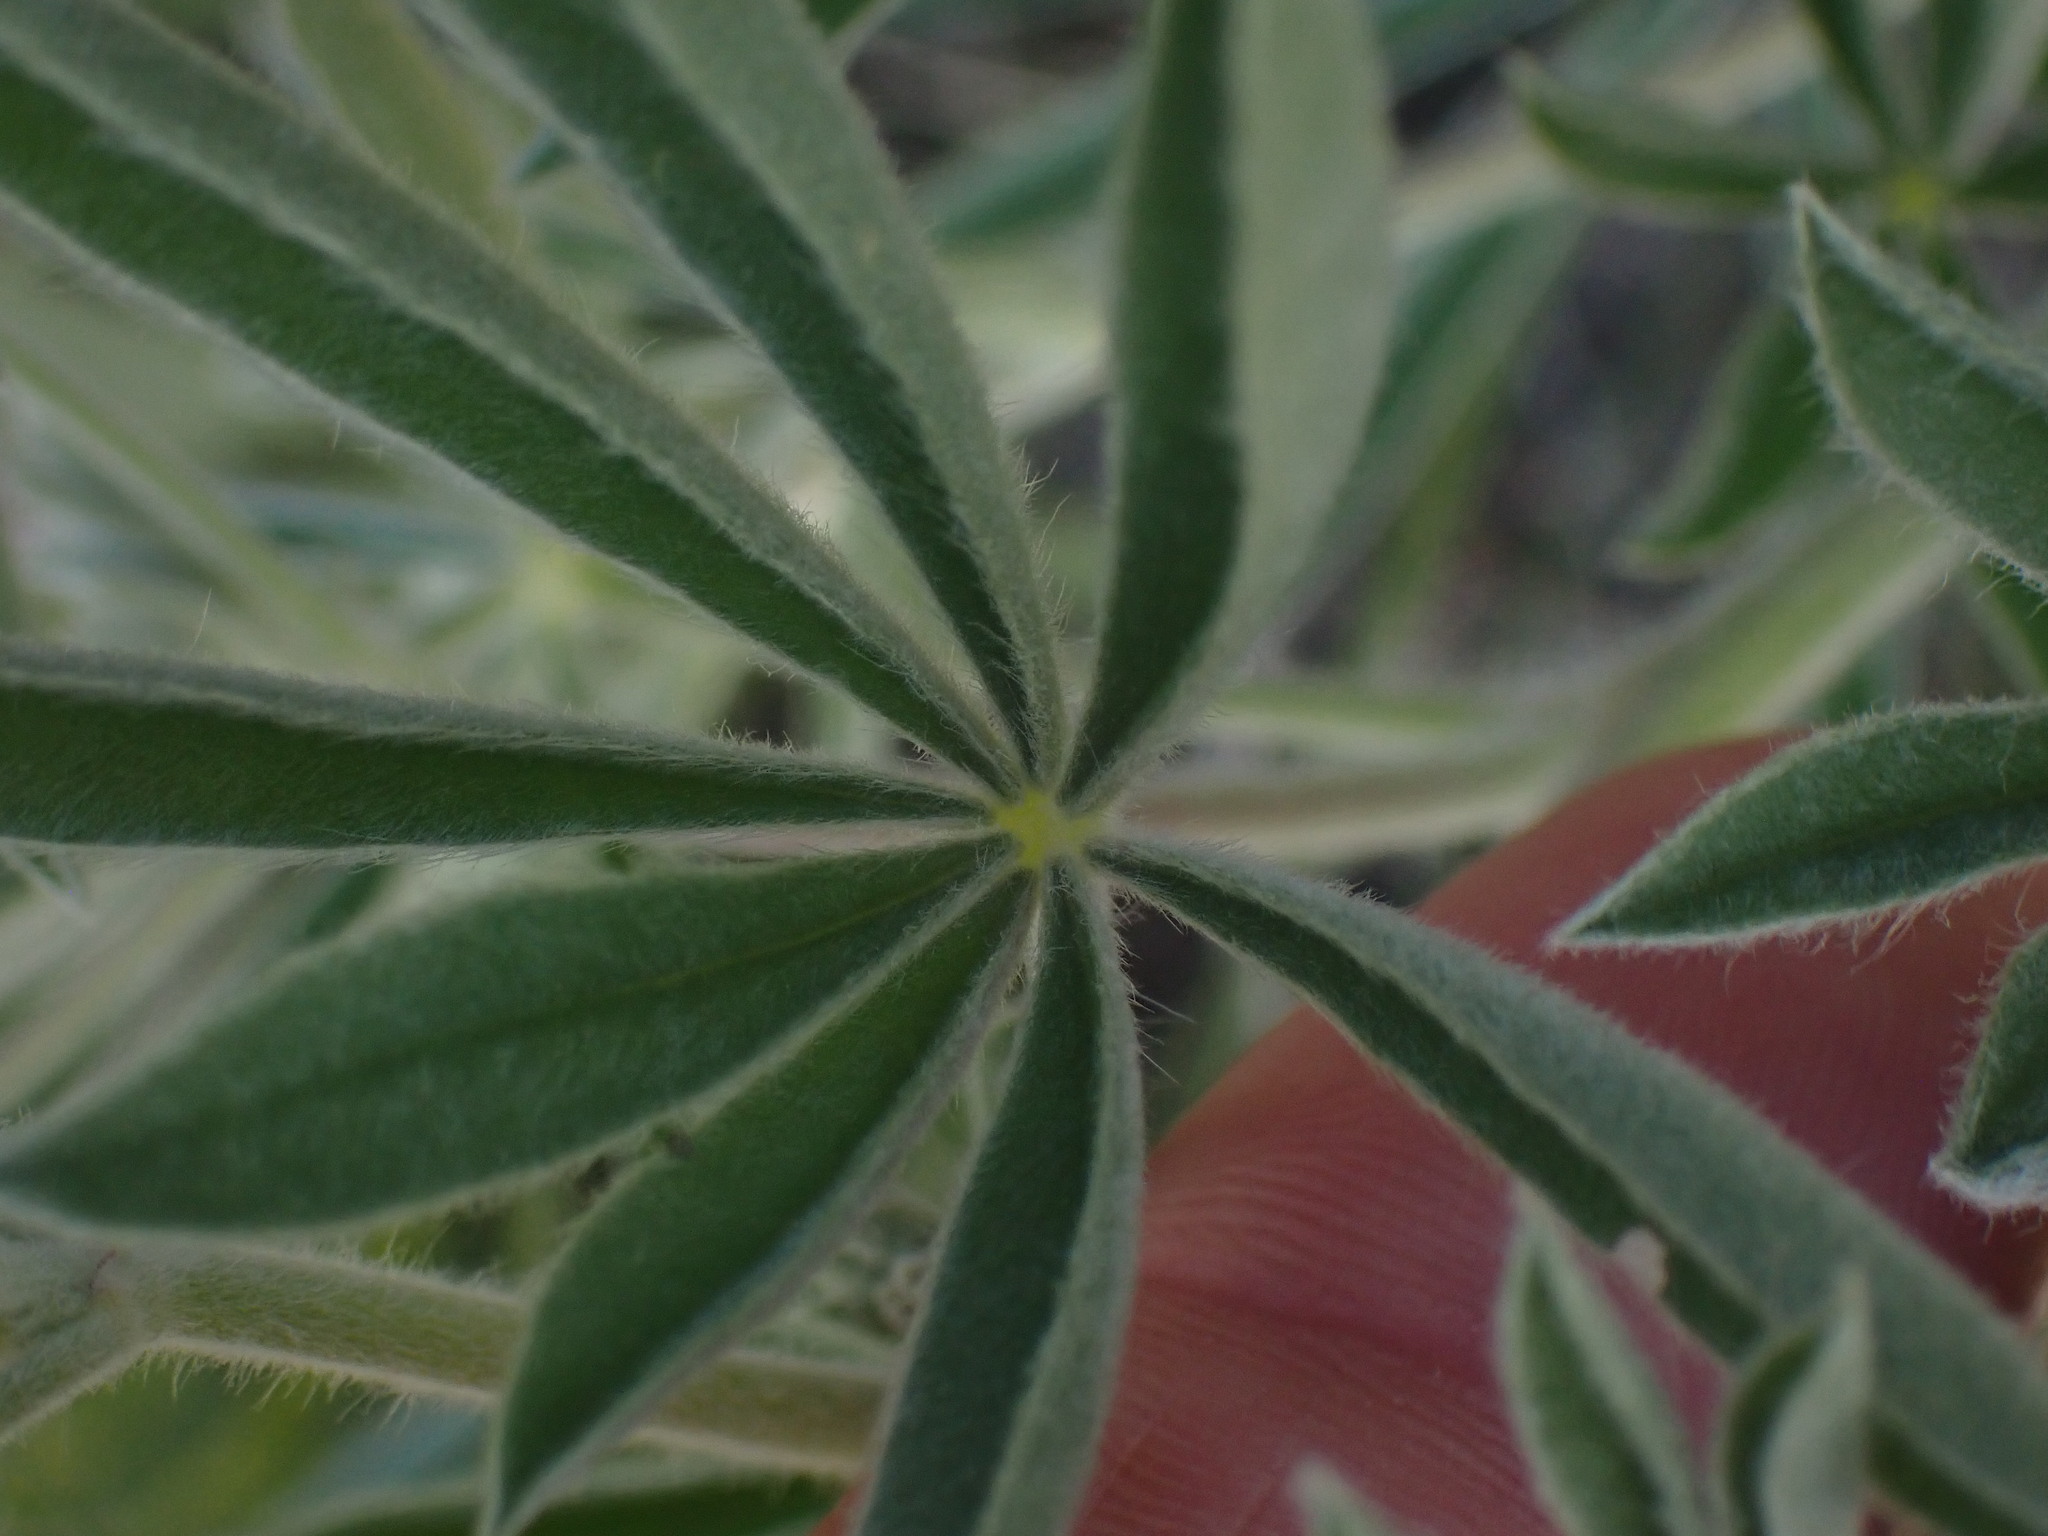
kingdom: Plantae
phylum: Tracheophyta
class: Magnoliopsida
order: Fabales
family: Fabaceae
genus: Lupinus
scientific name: Lupinus sericeus
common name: Silky lupine
